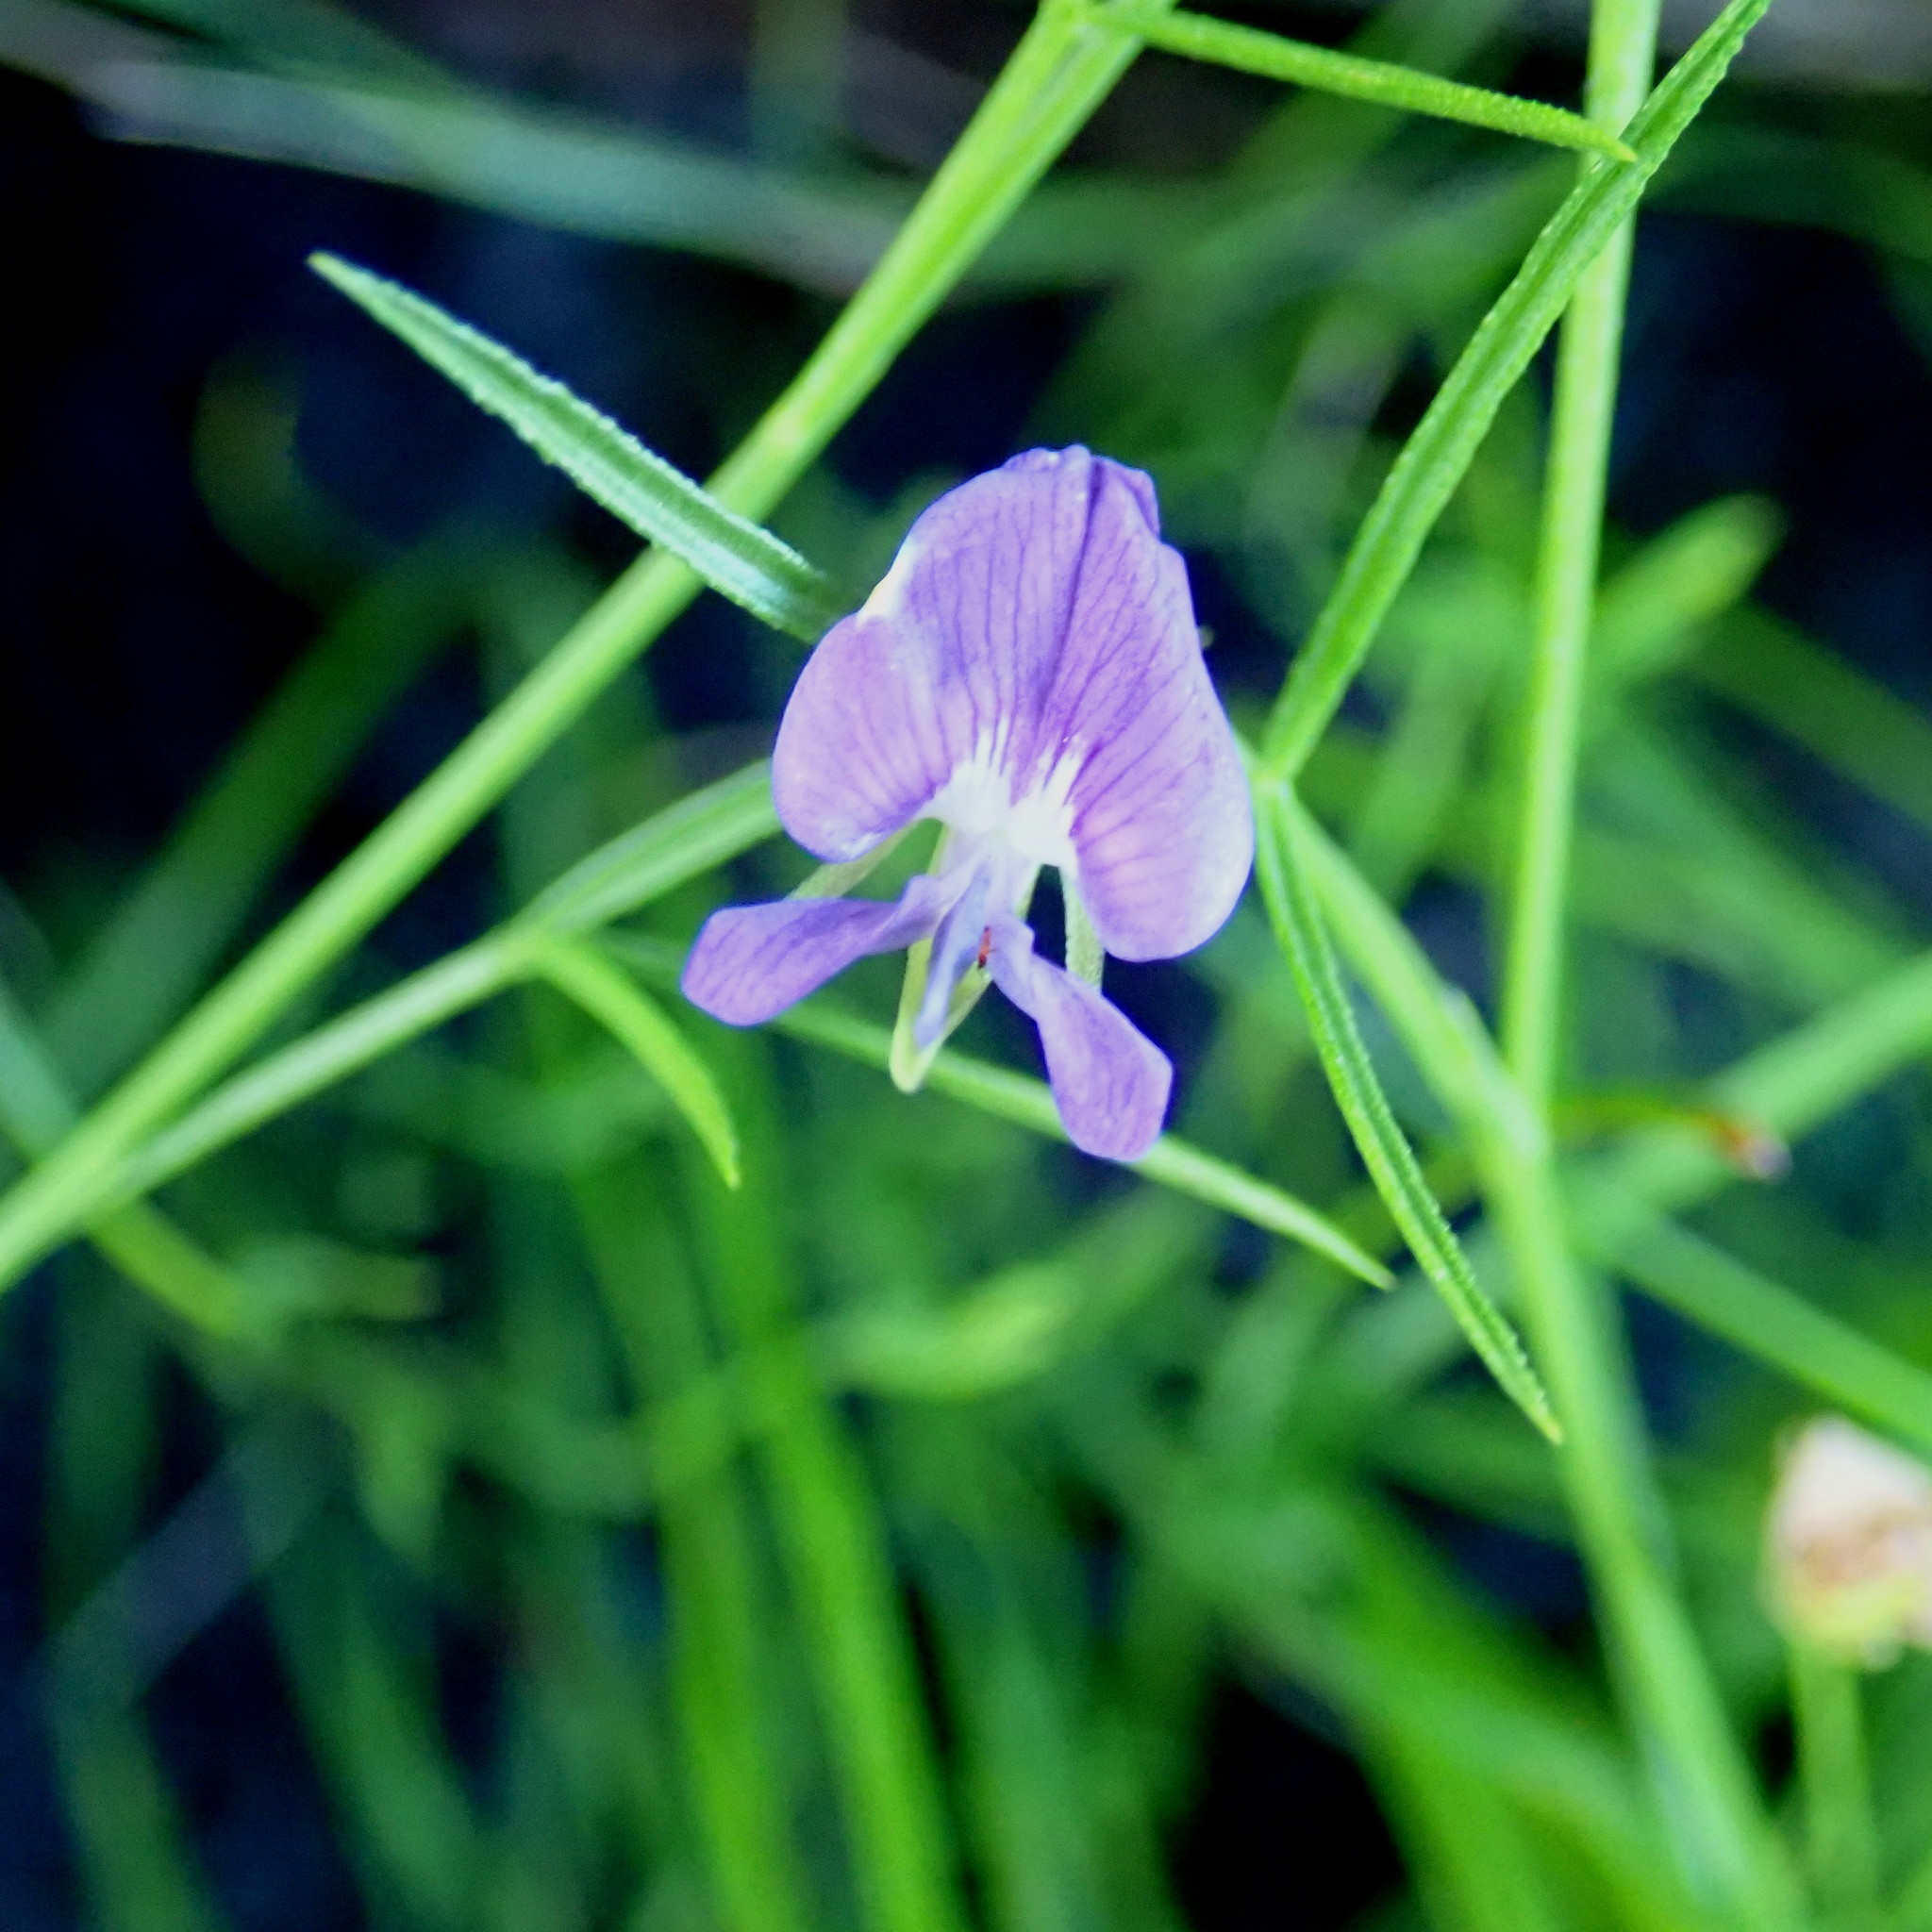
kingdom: Plantae
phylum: Tracheophyta
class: Magnoliopsida
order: Fabales
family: Fabaceae
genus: Psoralea
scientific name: Psoralea trullata
